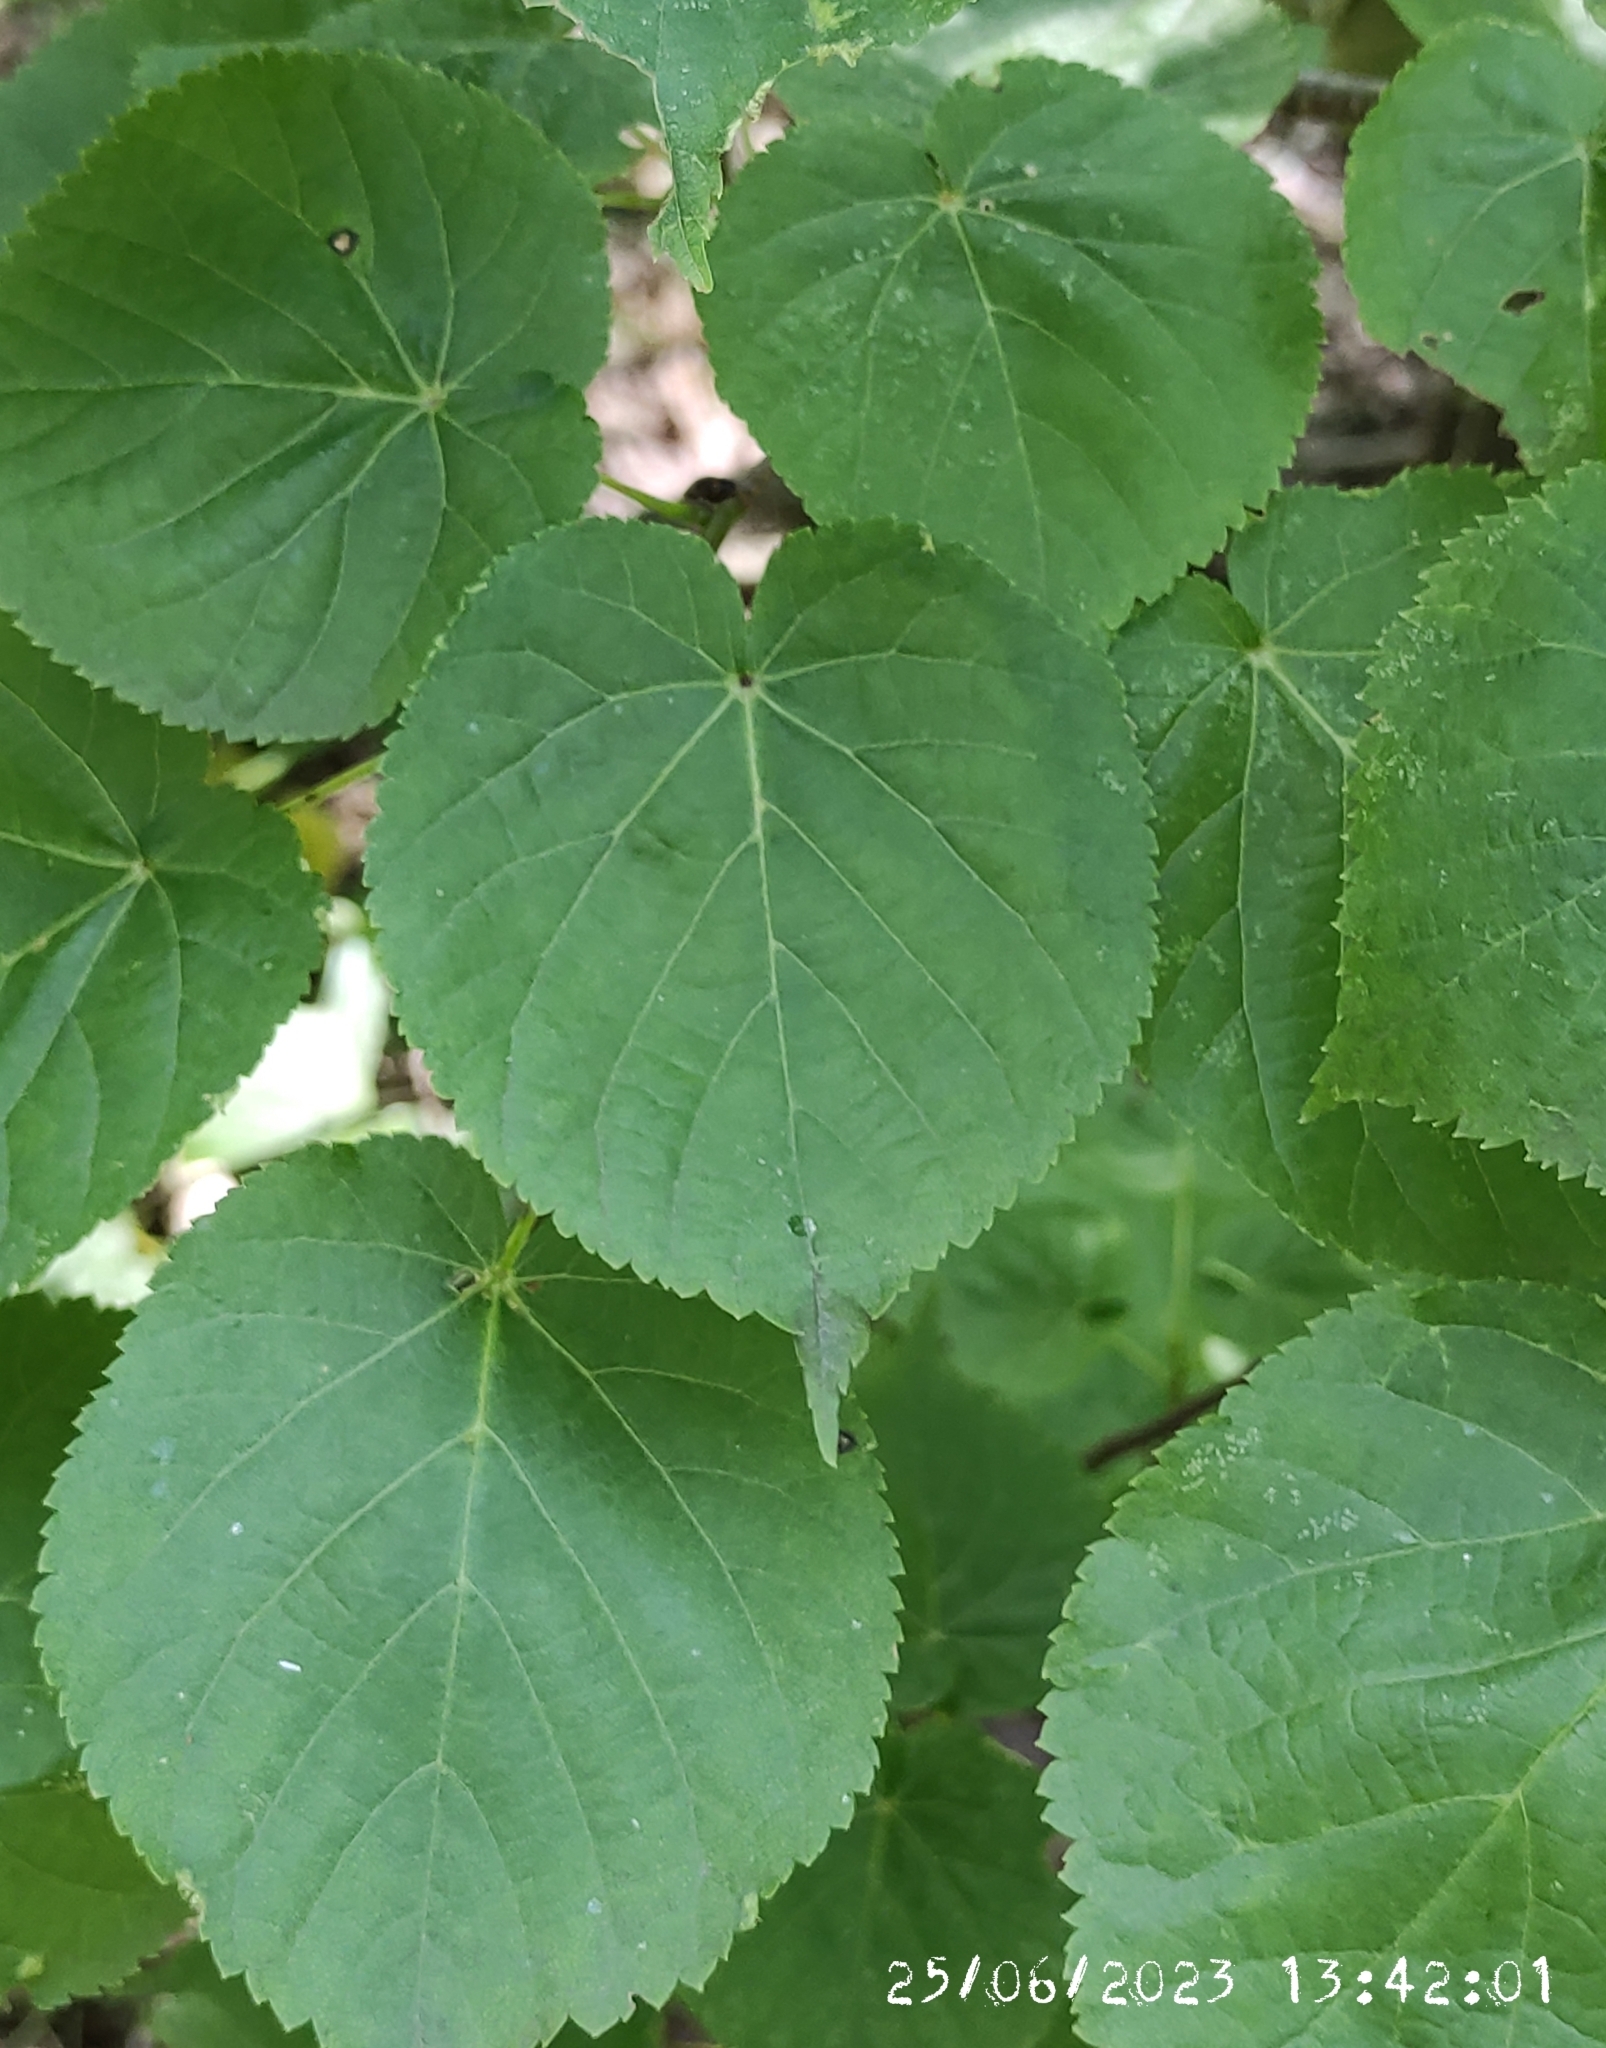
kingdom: Plantae
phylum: Tracheophyta
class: Magnoliopsida
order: Malvales
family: Malvaceae
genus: Tilia
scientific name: Tilia cordata
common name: Small-leaved lime
